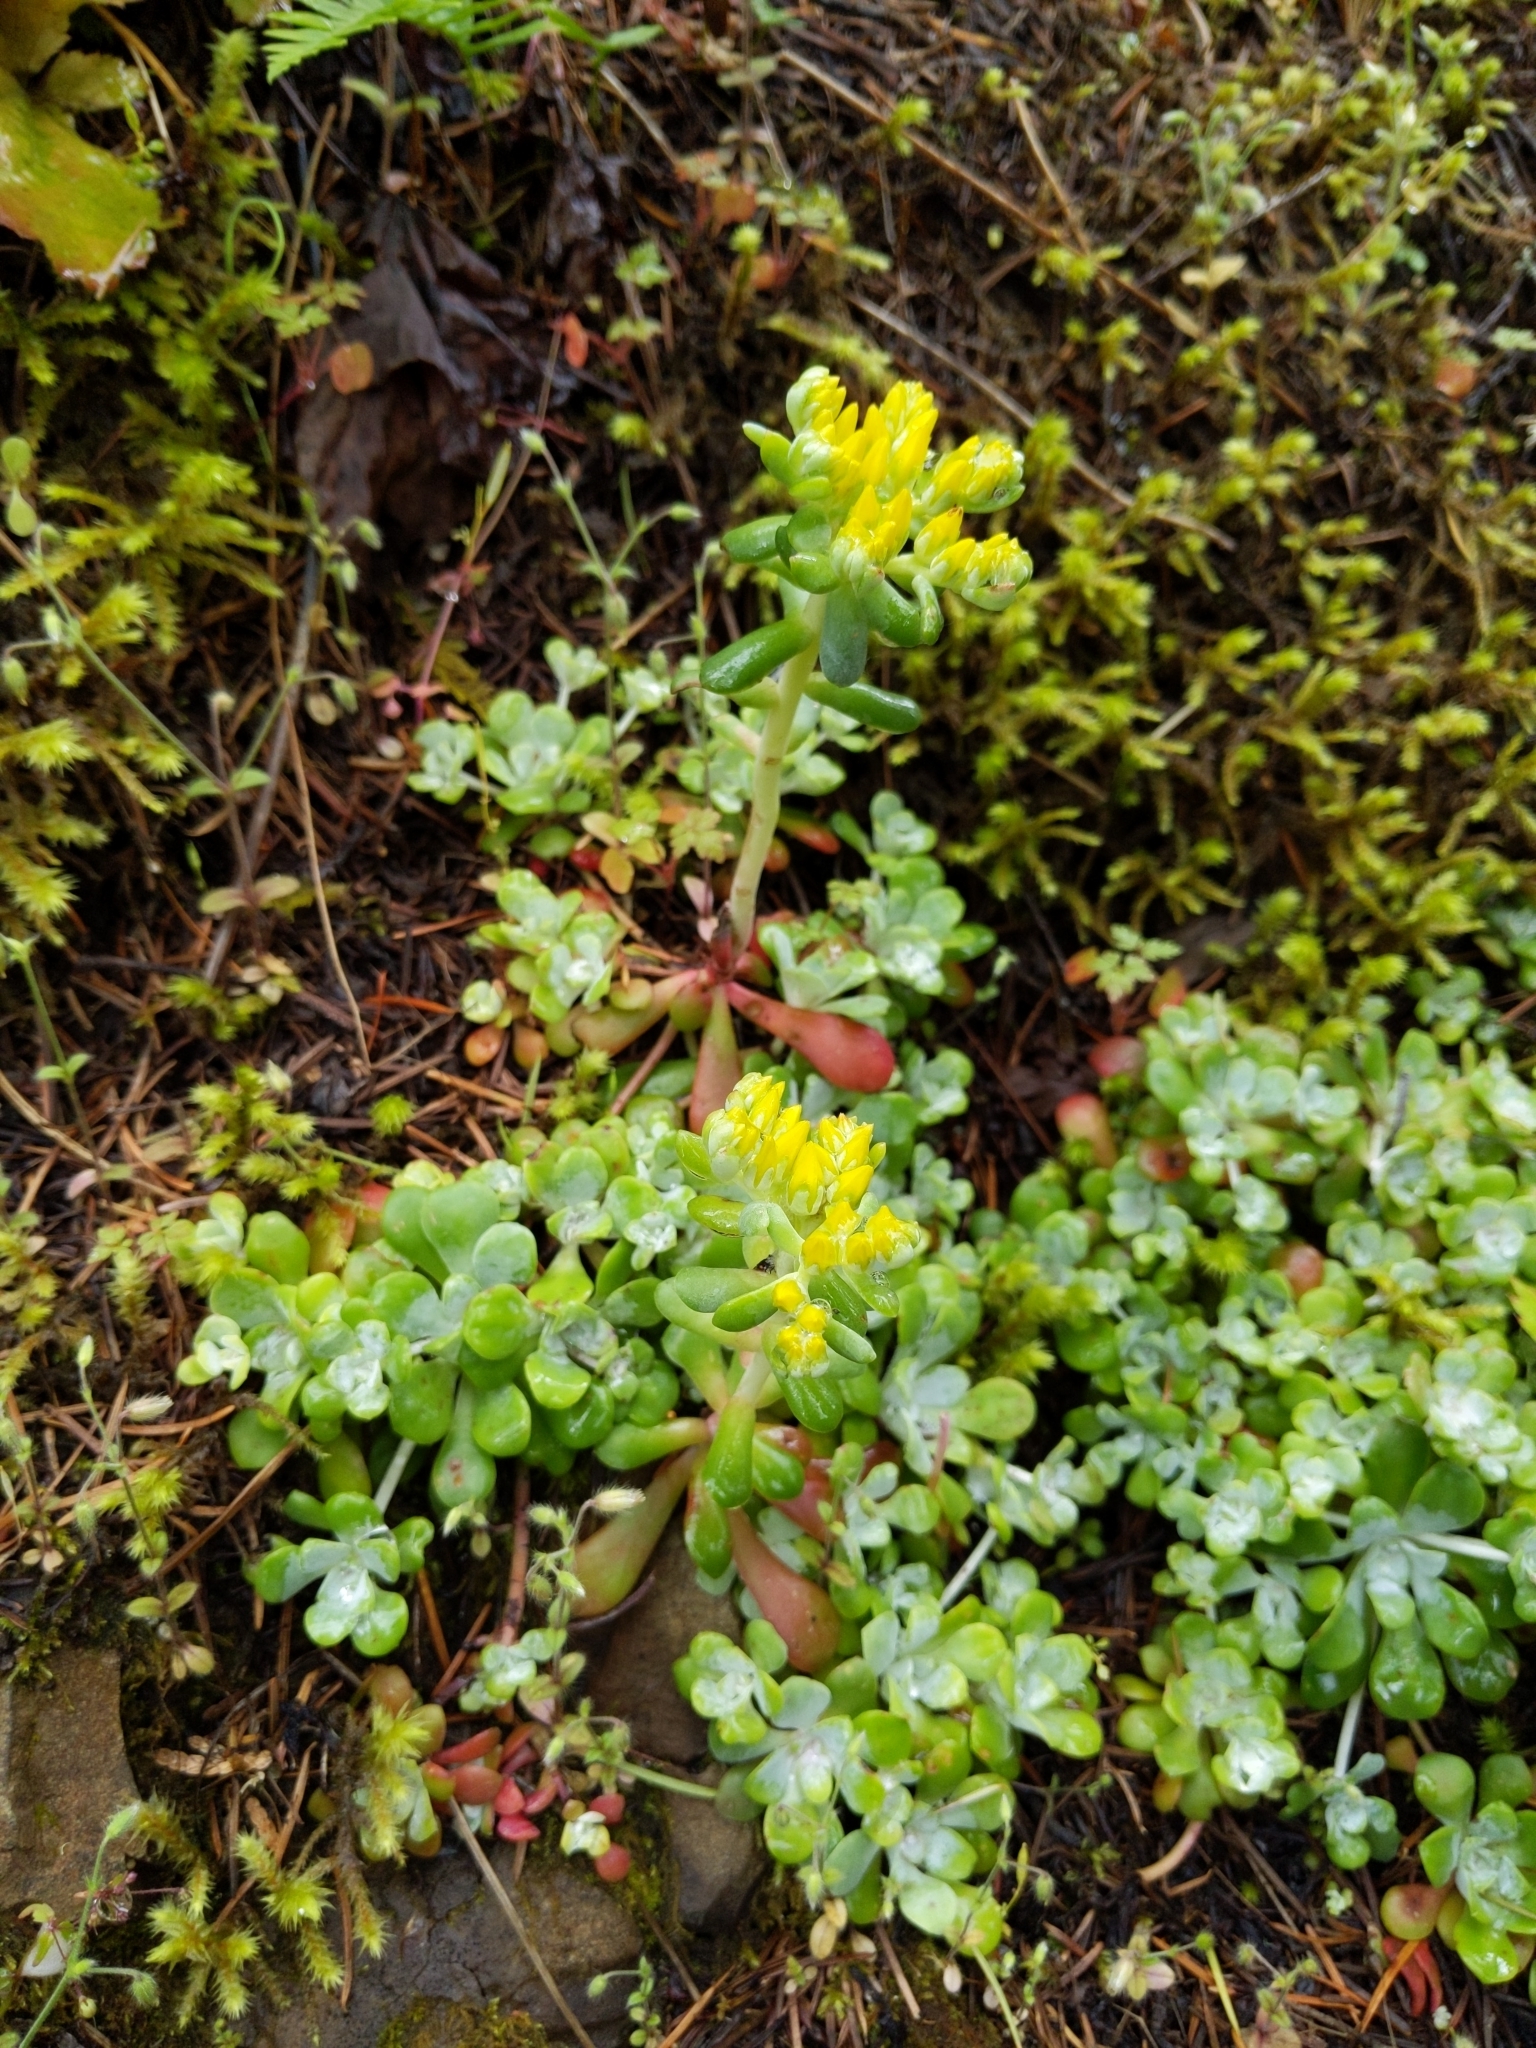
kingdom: Plantae
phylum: Tracheophyta
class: Magnoliopsida
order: Saxifragales
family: Crassulaceae
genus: Sedum
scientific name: Sedum spathulifolium
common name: Colorado stonecrop
